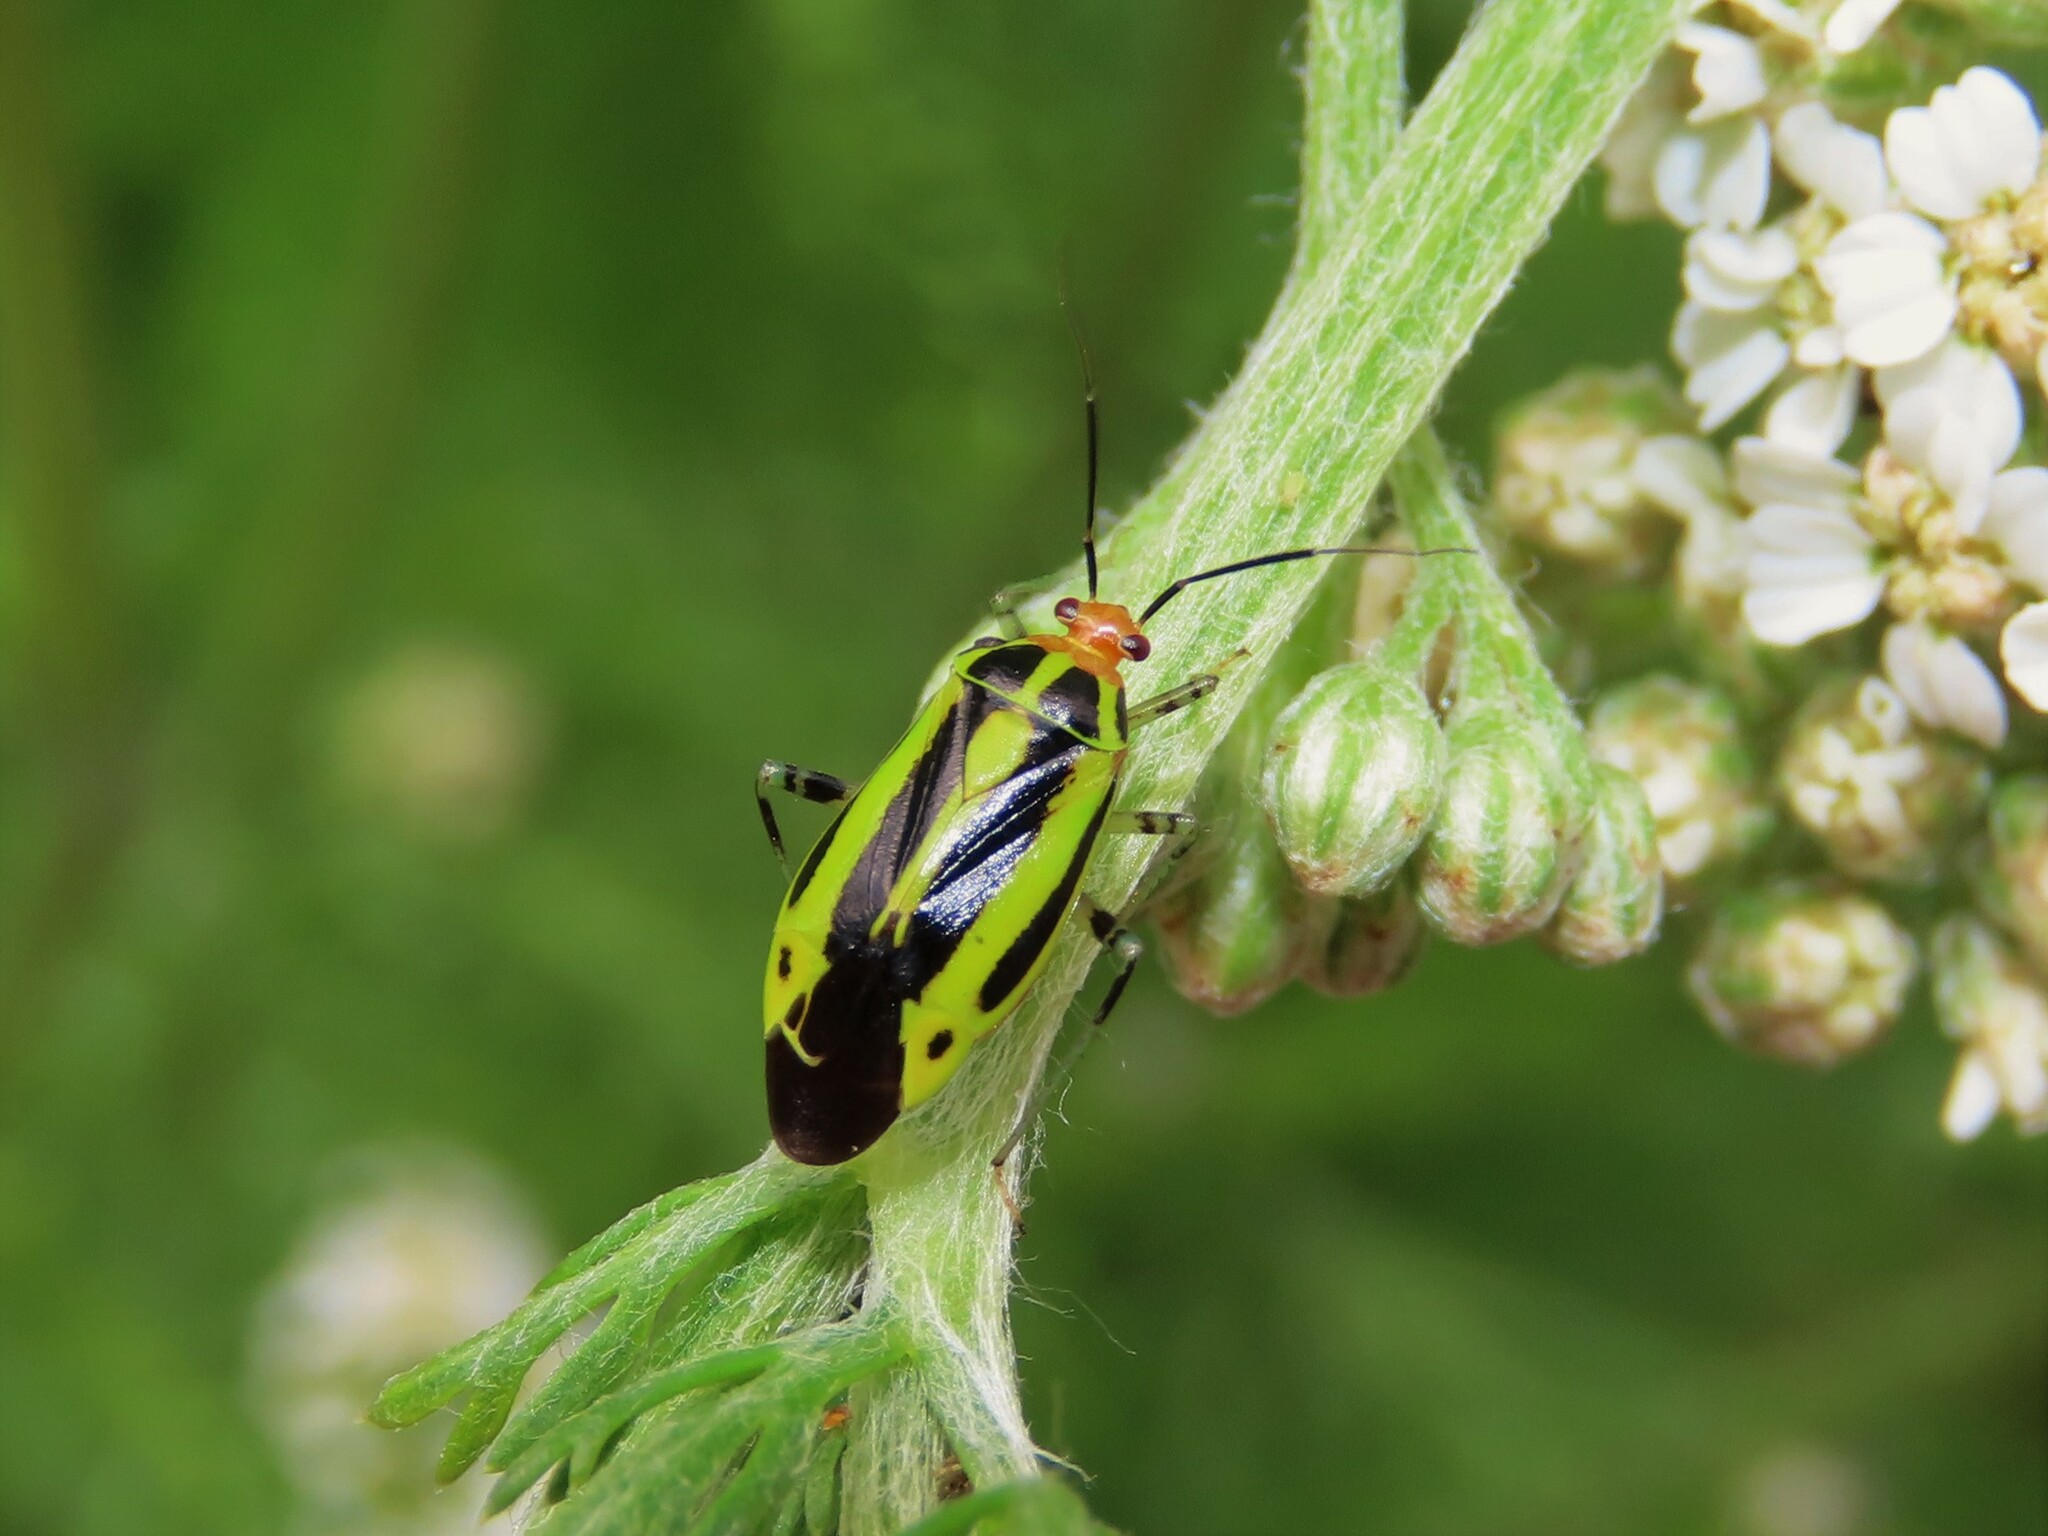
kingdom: Animalia
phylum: Arthropoda
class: Insecta
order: Hemiptera
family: Miridae
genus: Poecilocapsus
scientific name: Poecilocapsus lineatus
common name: Four-lined plant bug
